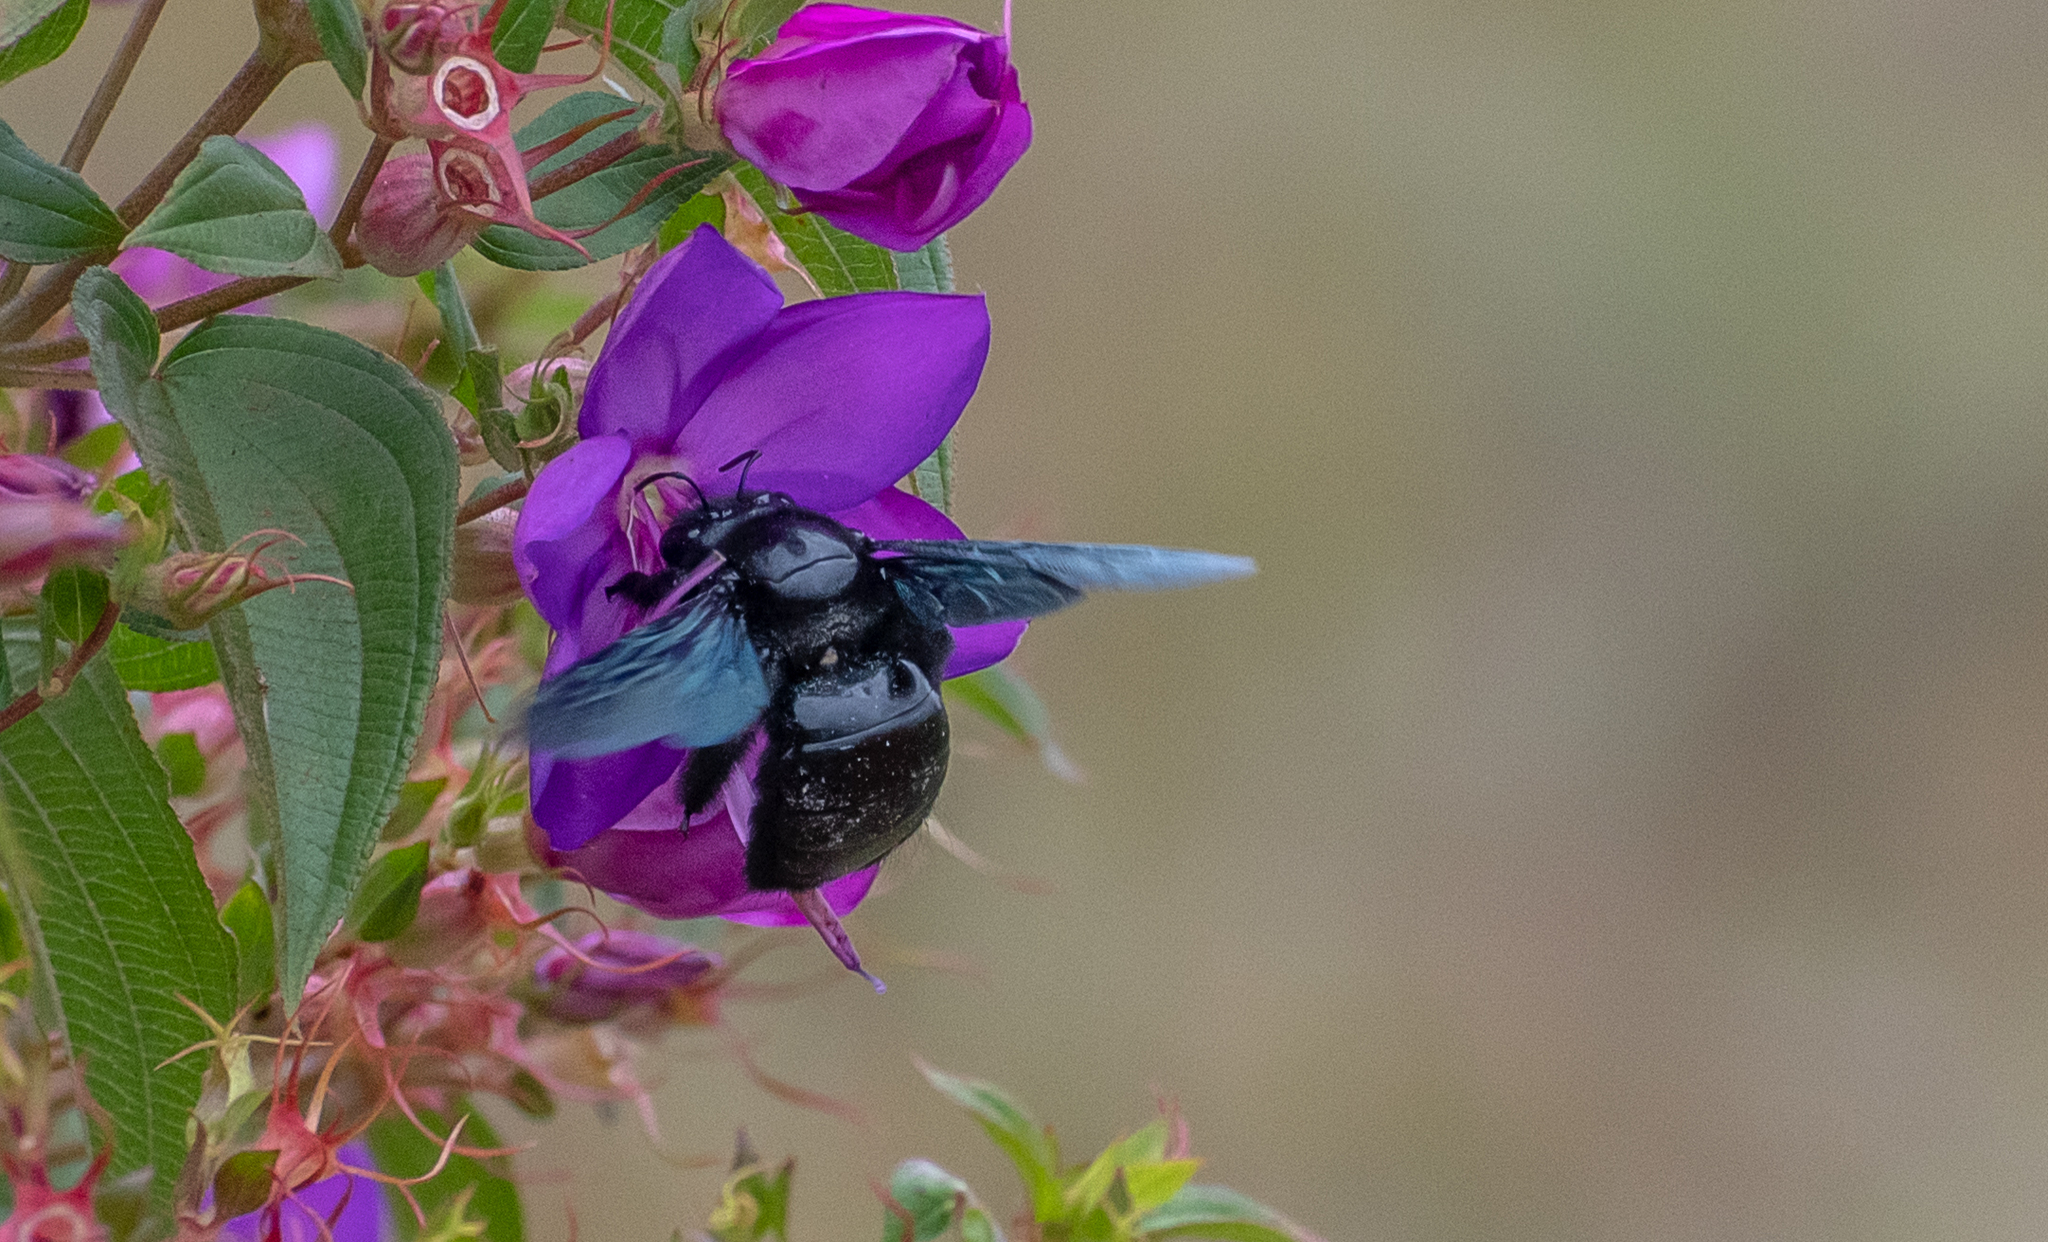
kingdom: Animalia
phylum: Arthropoda
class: Insecta
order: Hymenoptera
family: Apidae
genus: Xylocopa
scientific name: Xylocopa fimbriata
